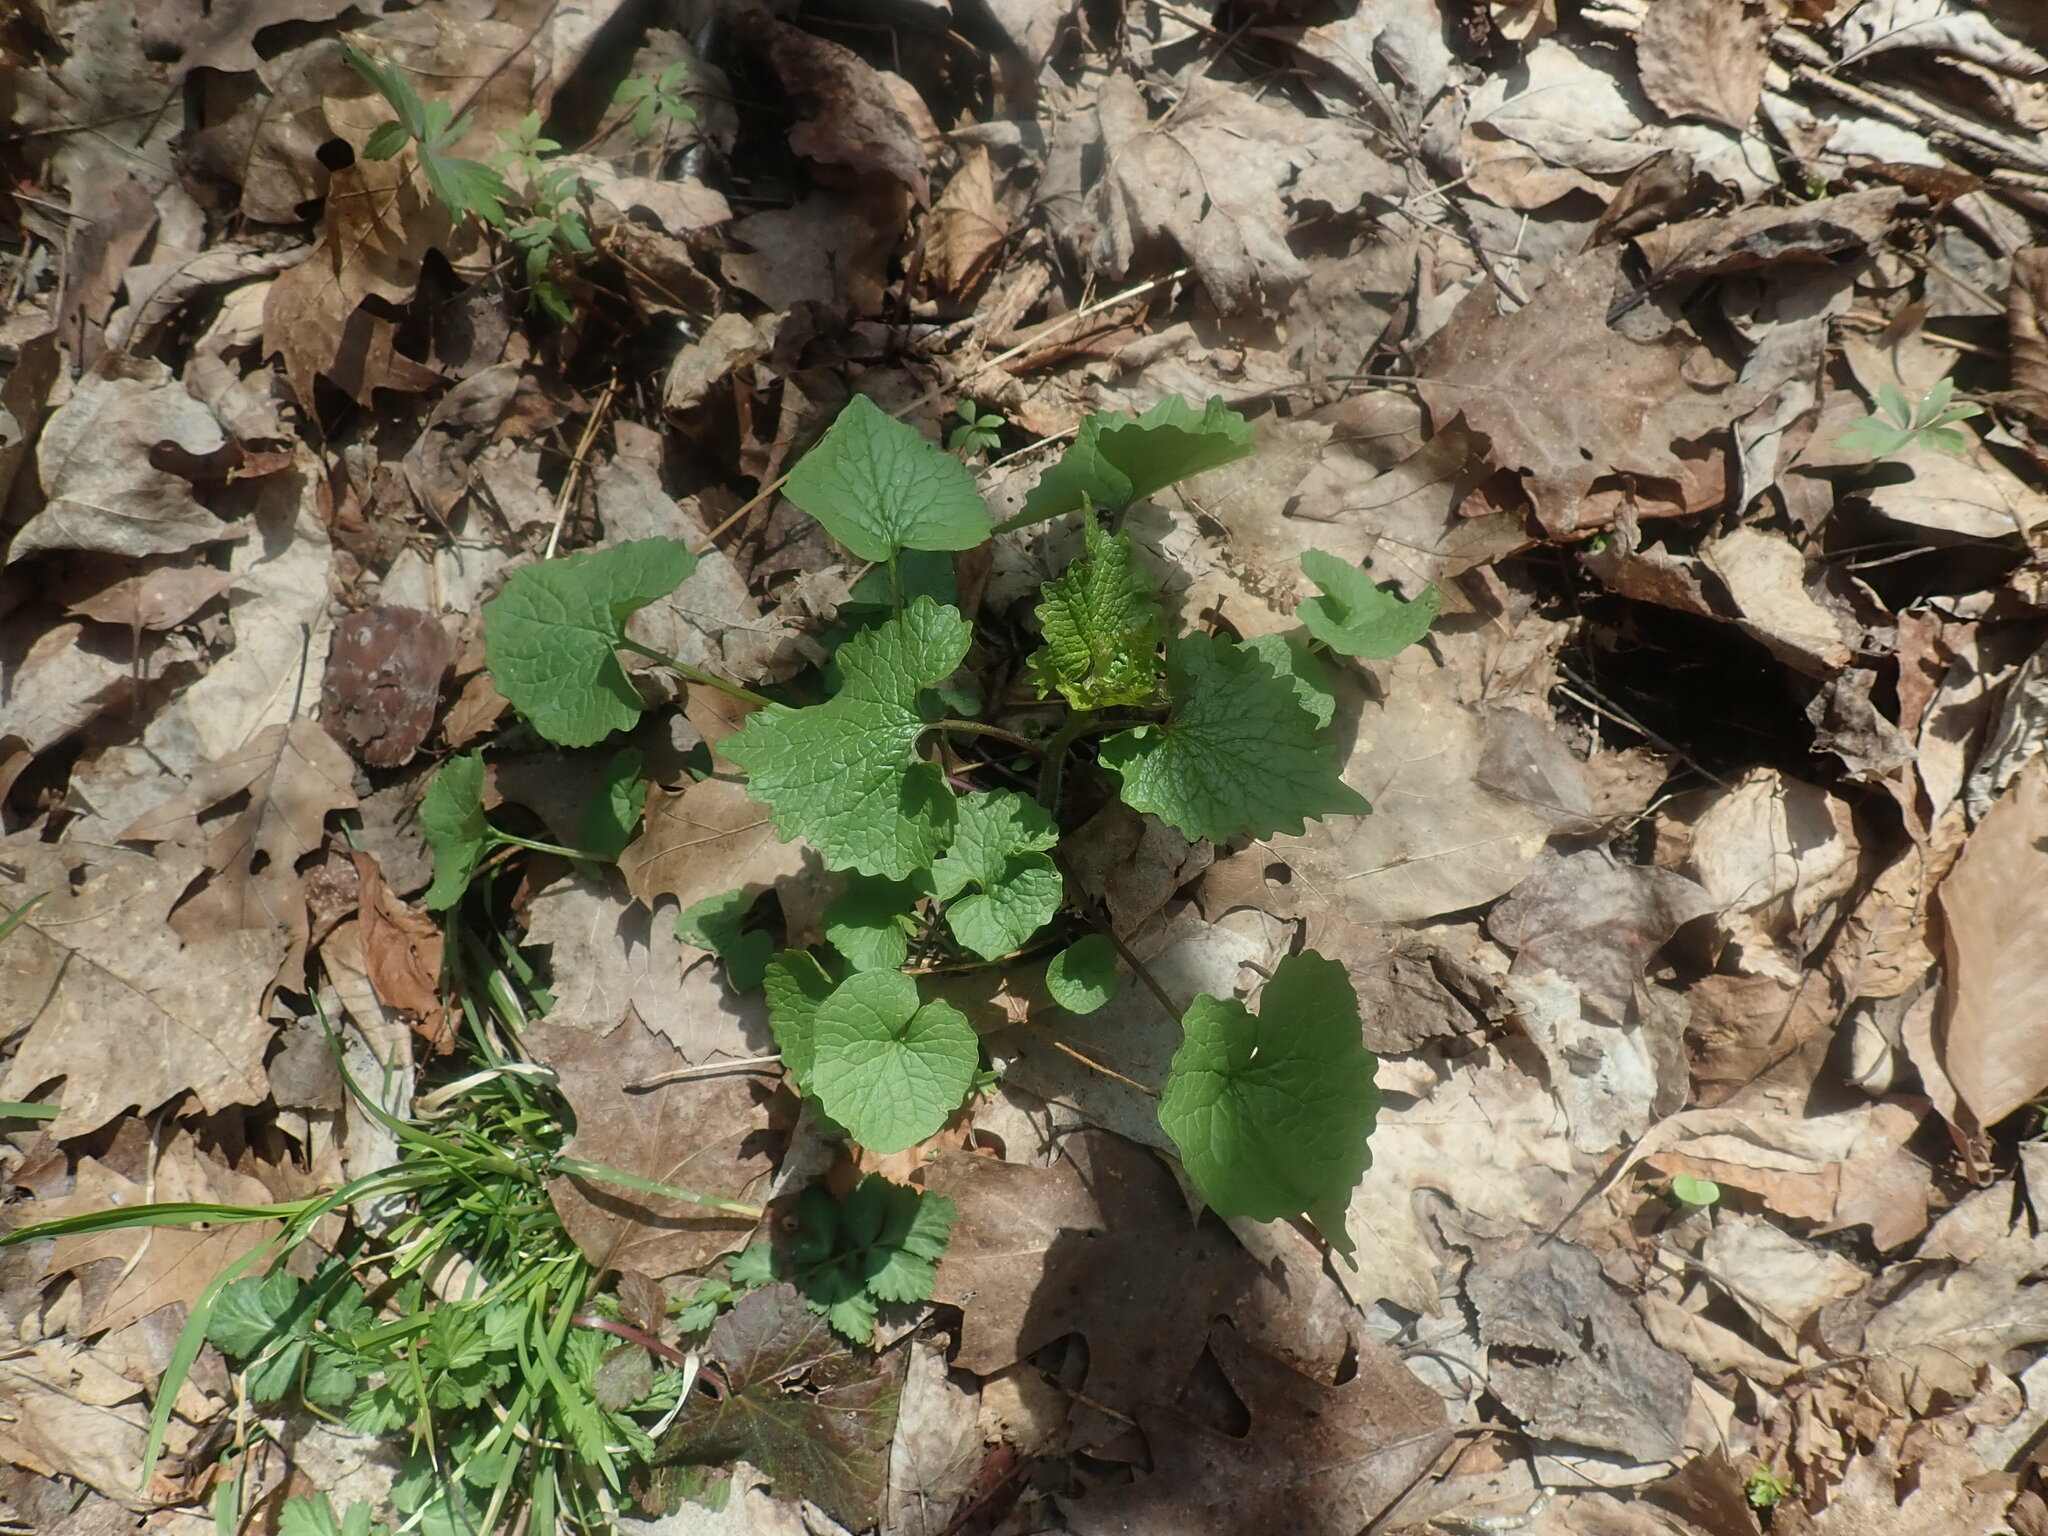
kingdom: Plantae
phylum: Tracheophyta
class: Magnoliopsida
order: Brassicales
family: Brassicaceae
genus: Alliaria
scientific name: Alliaria petiolata
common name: Garlic mustard
